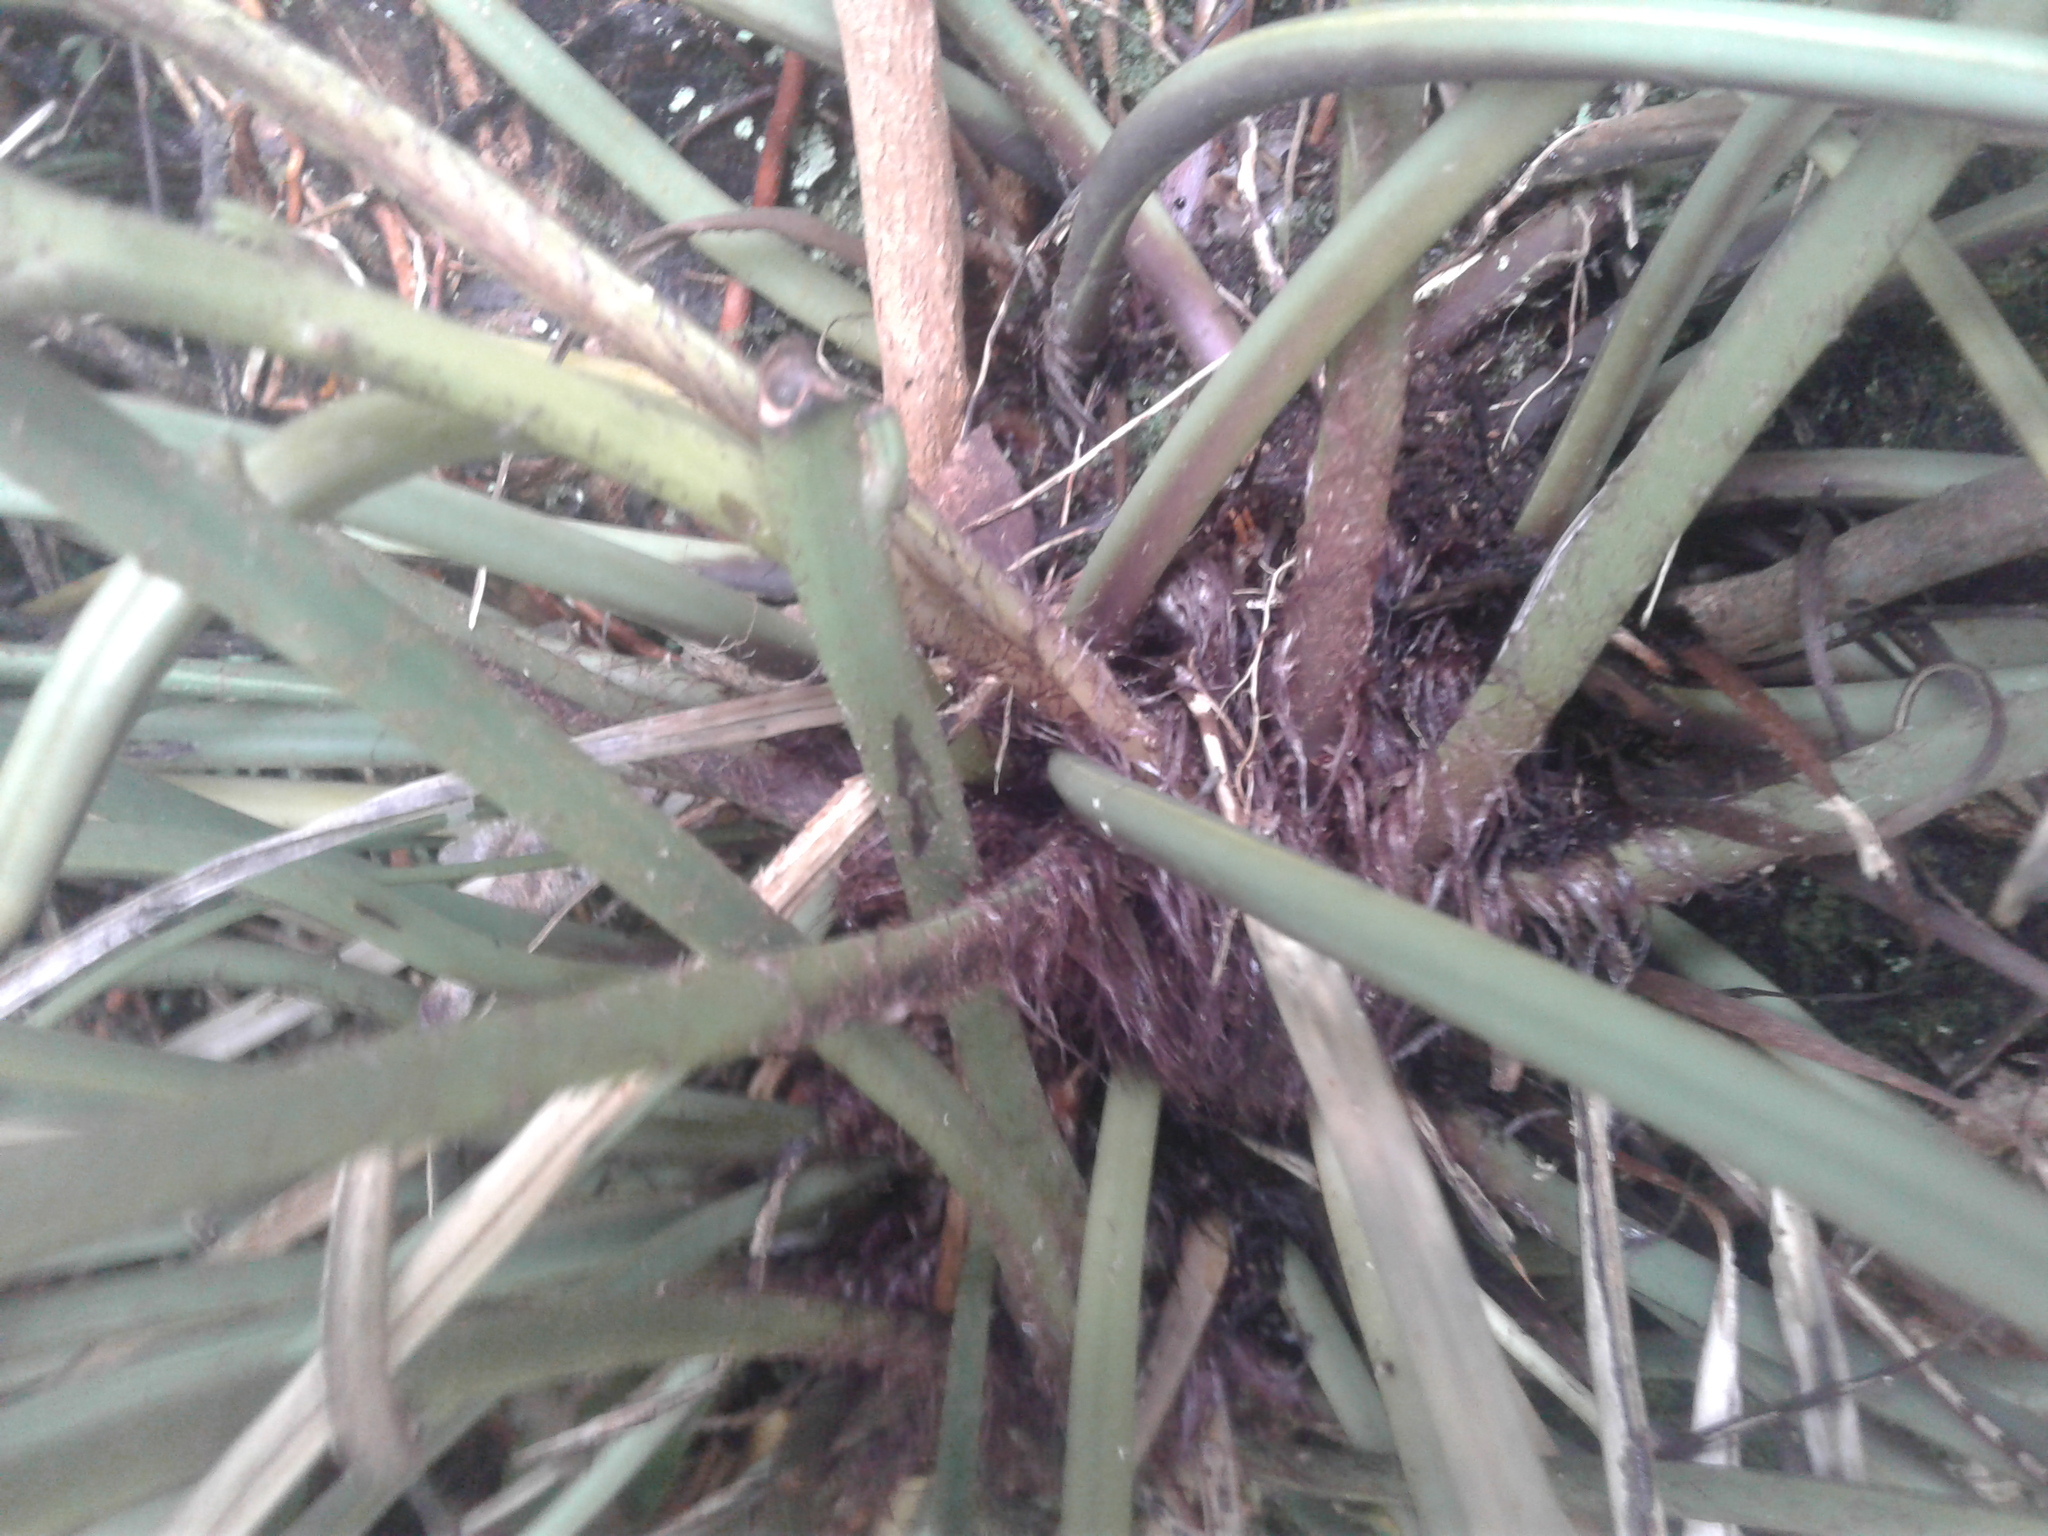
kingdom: Plantae
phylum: Tracheophyta
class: Polypodiopsida
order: Polypodiales
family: Aspleniaceae
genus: Asplenium
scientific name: Asplenium flaccidum
